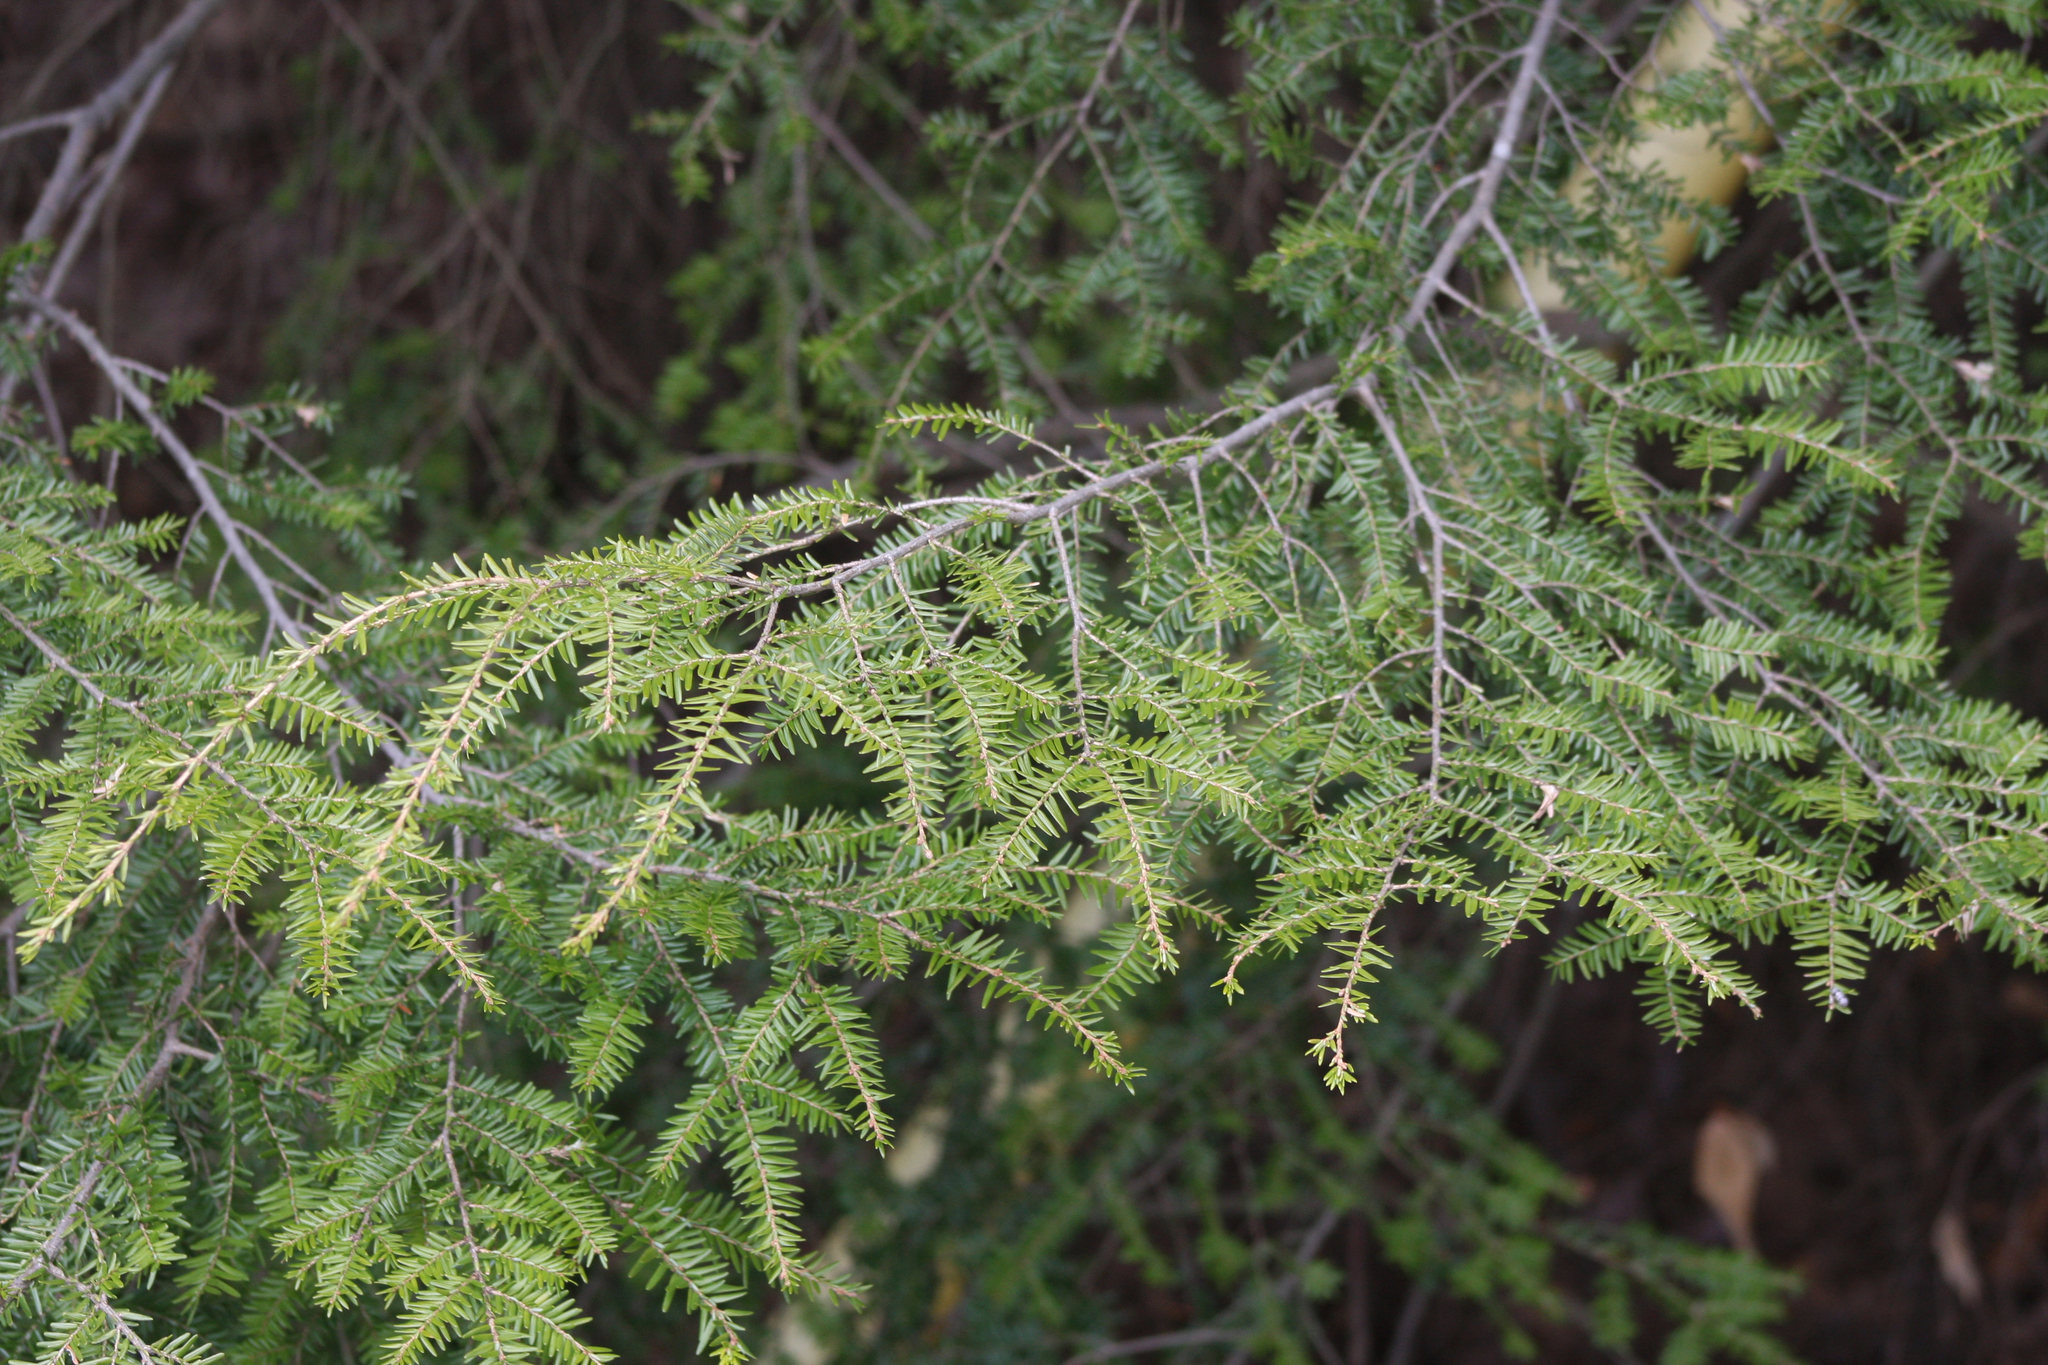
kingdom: Plantae
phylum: Tracheophyta
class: Pinopsida
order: Pinales
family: Pinaceae
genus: Tsuga
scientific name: Tsuga canadensis
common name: Eastern hemlock
